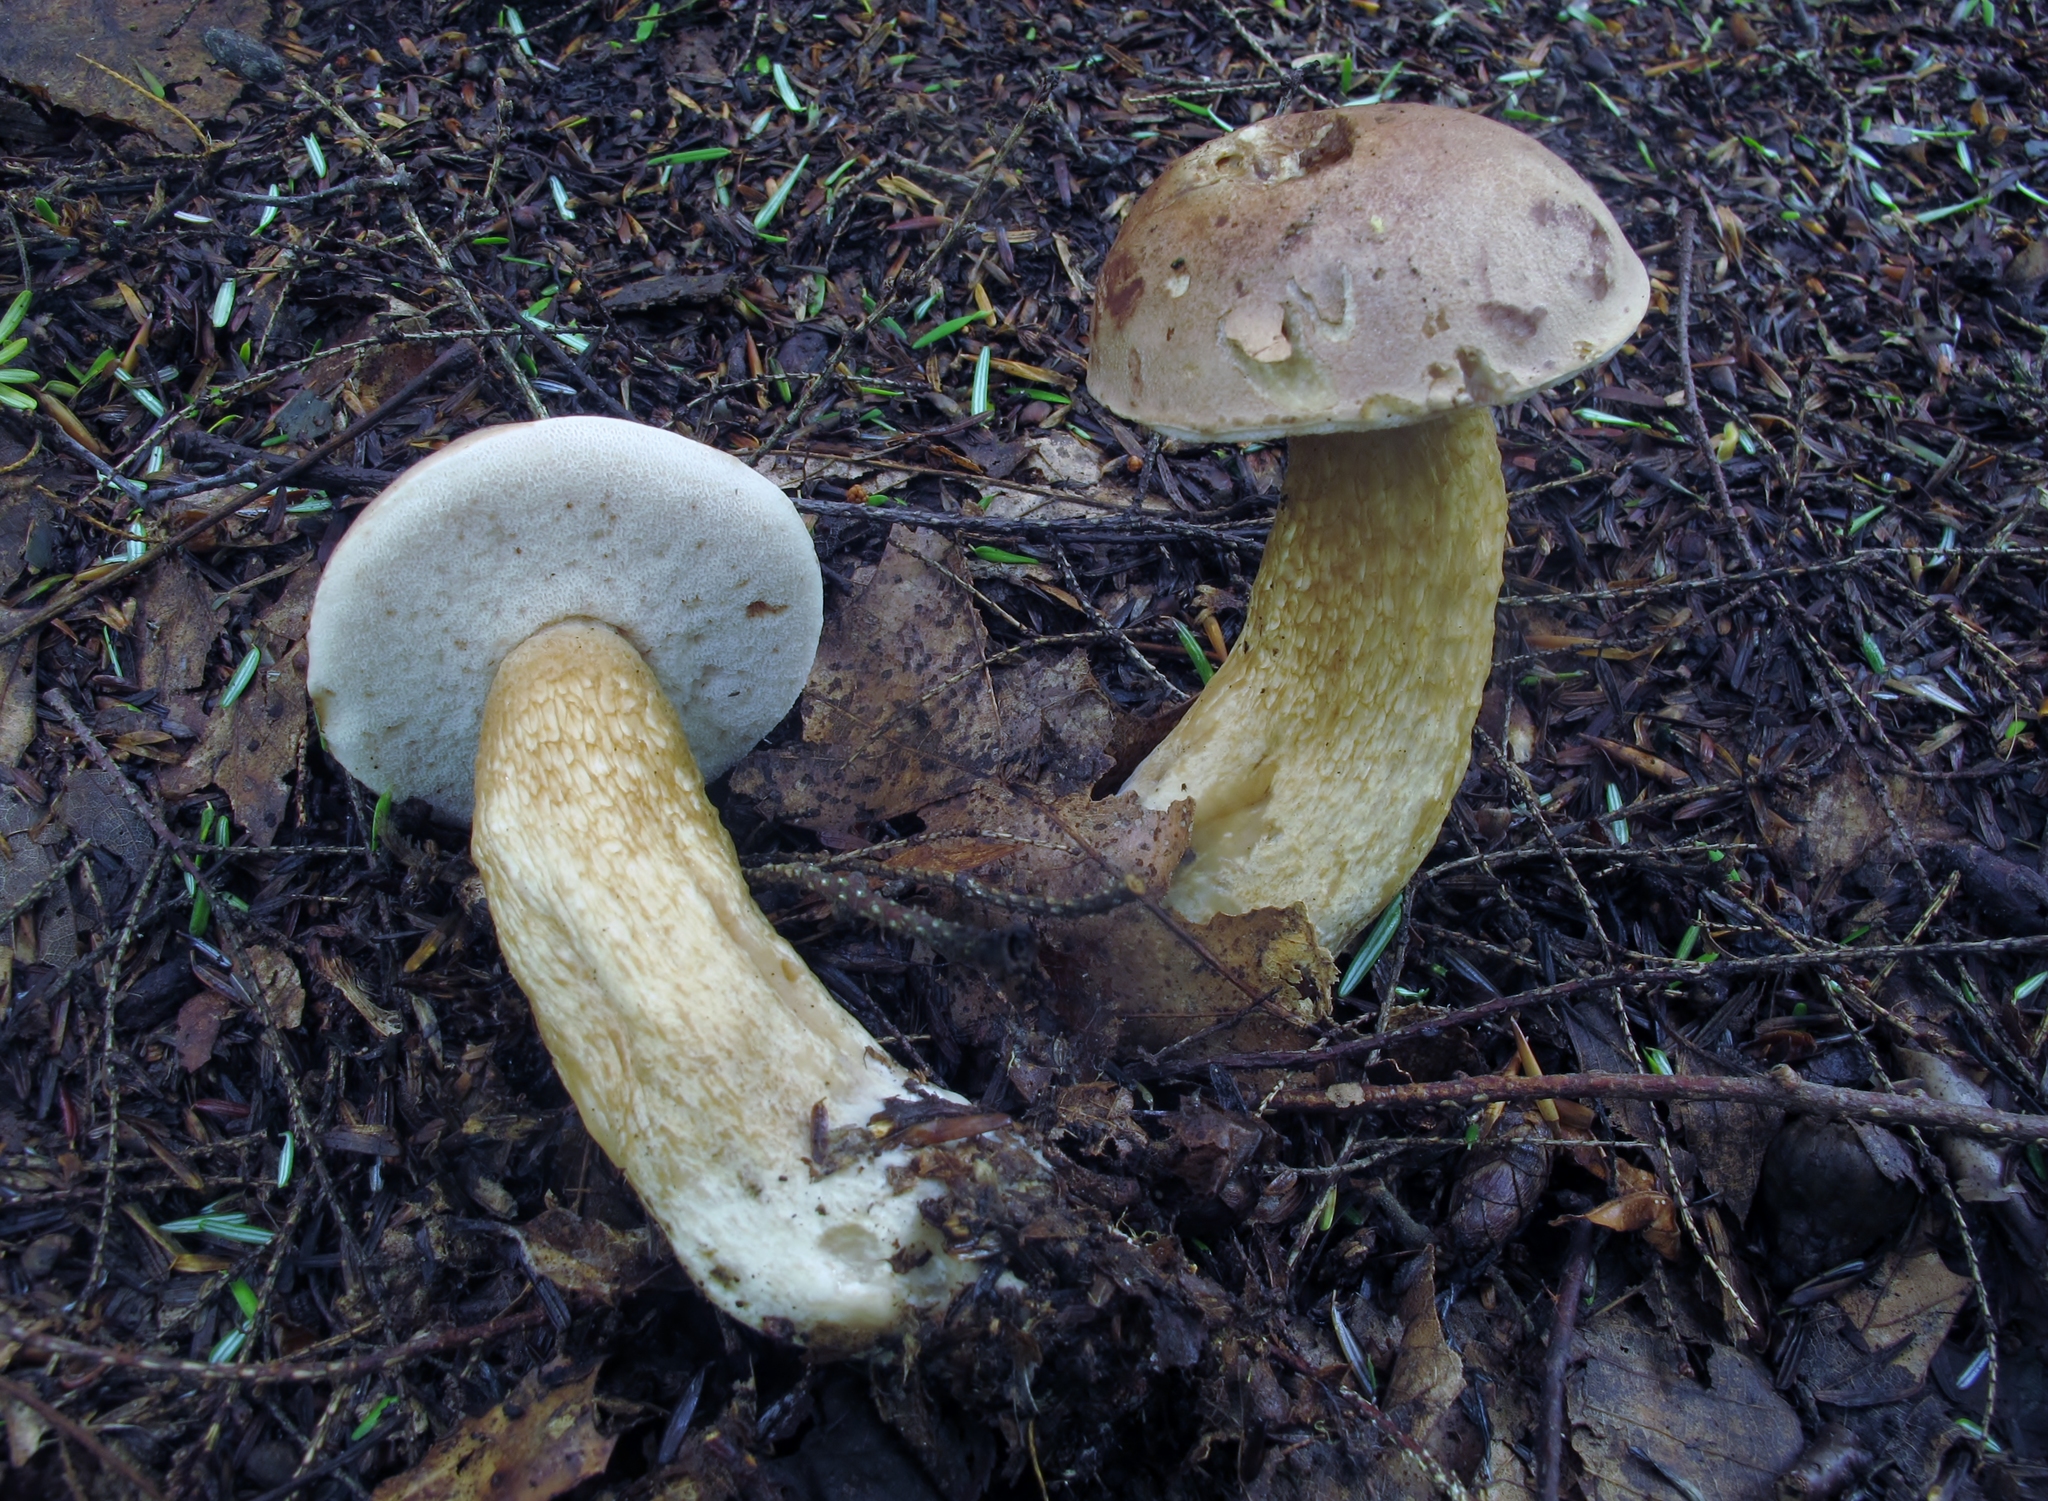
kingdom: Fungi
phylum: Basidiomycota
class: Agaricomycetes
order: Boletales
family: Boletaceae
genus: Tylopilus
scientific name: Tylopilus felleus
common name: Bitter bolete
